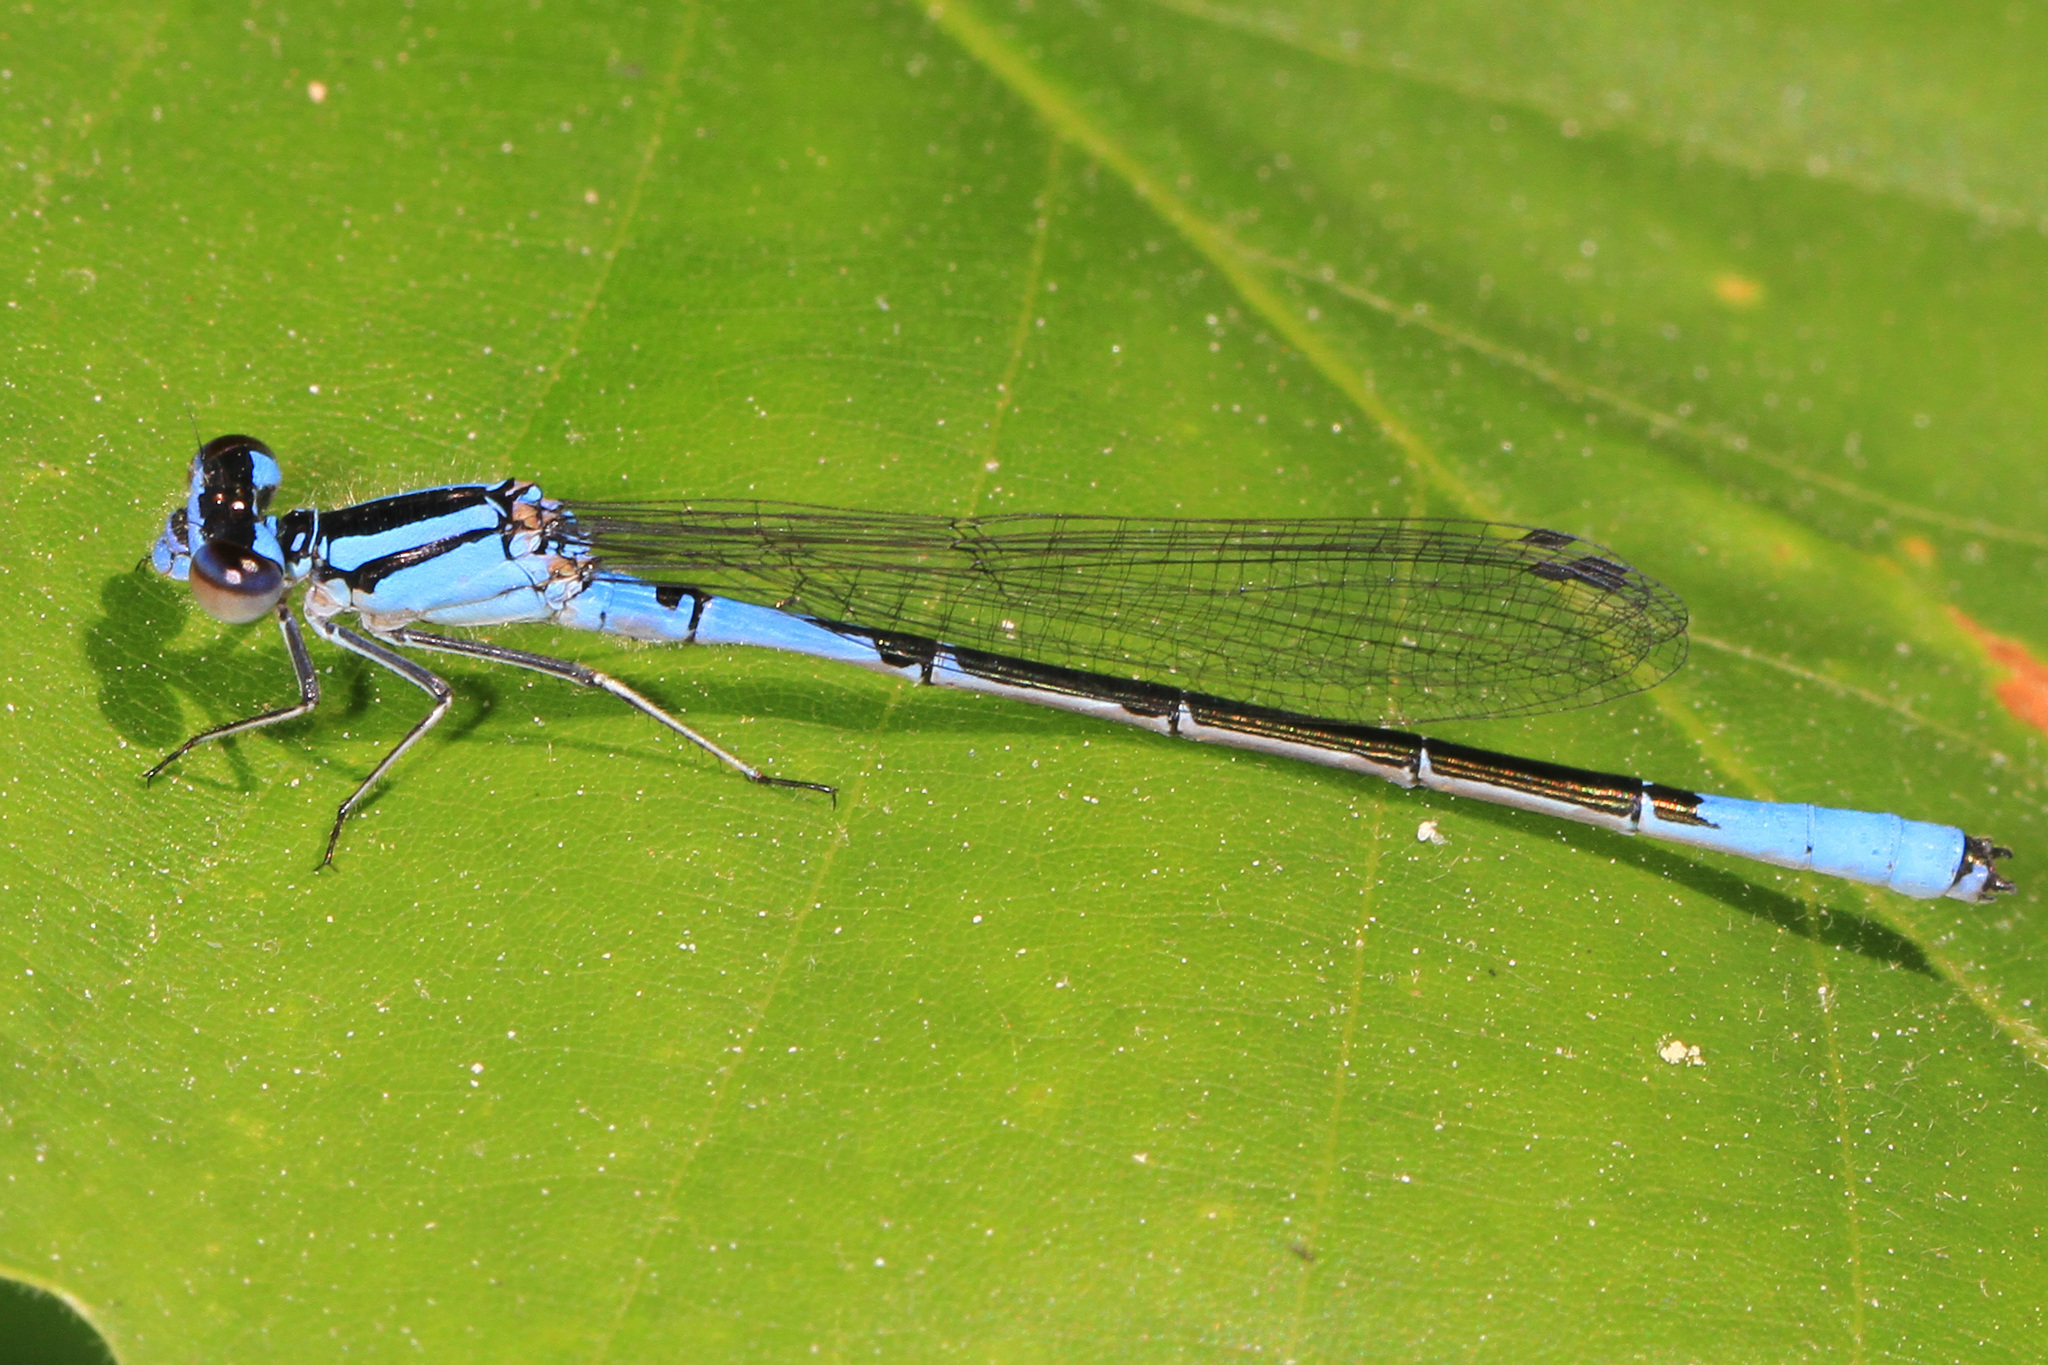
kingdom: Animalia
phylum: Arthropoda
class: Insecta
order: Odonata
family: Coenagrionidae
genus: Enallagma
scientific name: Enallagma aspersum
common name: Azure bluet
